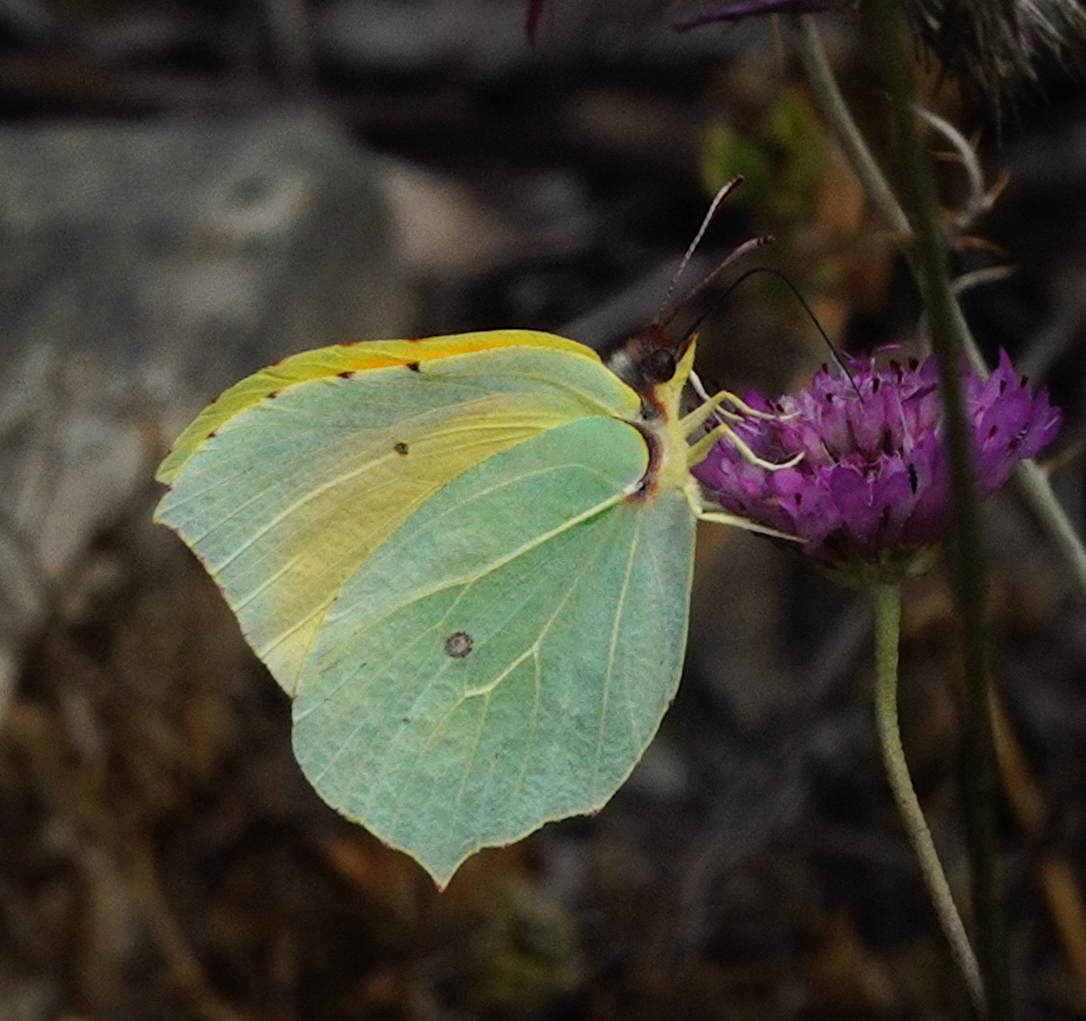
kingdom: Animalia
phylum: Arthropoda
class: Insecta
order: Lepidoptera
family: Pieridae
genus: Gonepteryx
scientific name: Gonepteryx cleopatra
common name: Cleopatra
